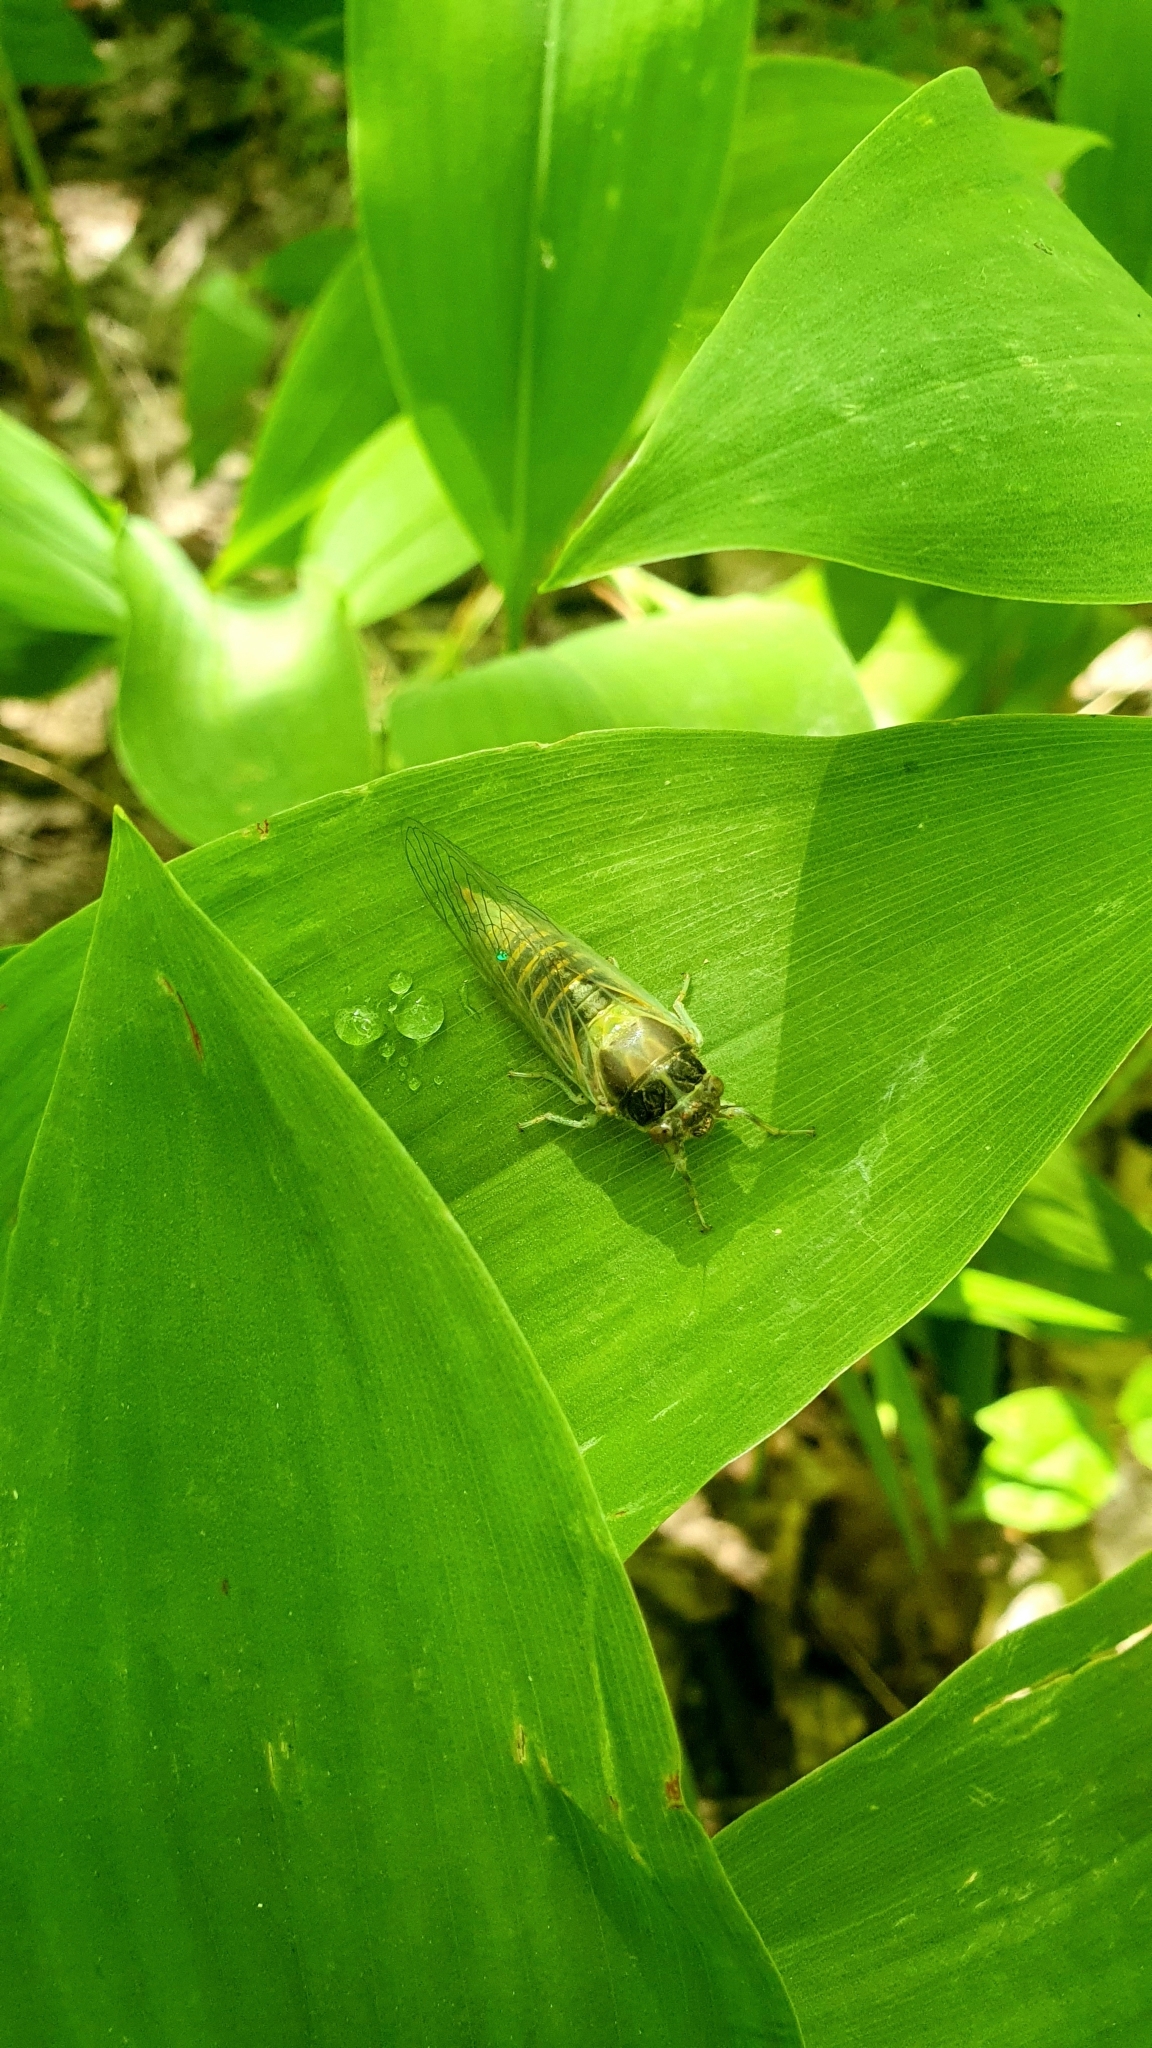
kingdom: Animalia
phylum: Arthropoda
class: Insecta
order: Hemiptera
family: Cicadidae
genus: Cicadetta
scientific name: Cicadetta montana
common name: New forest cicada
